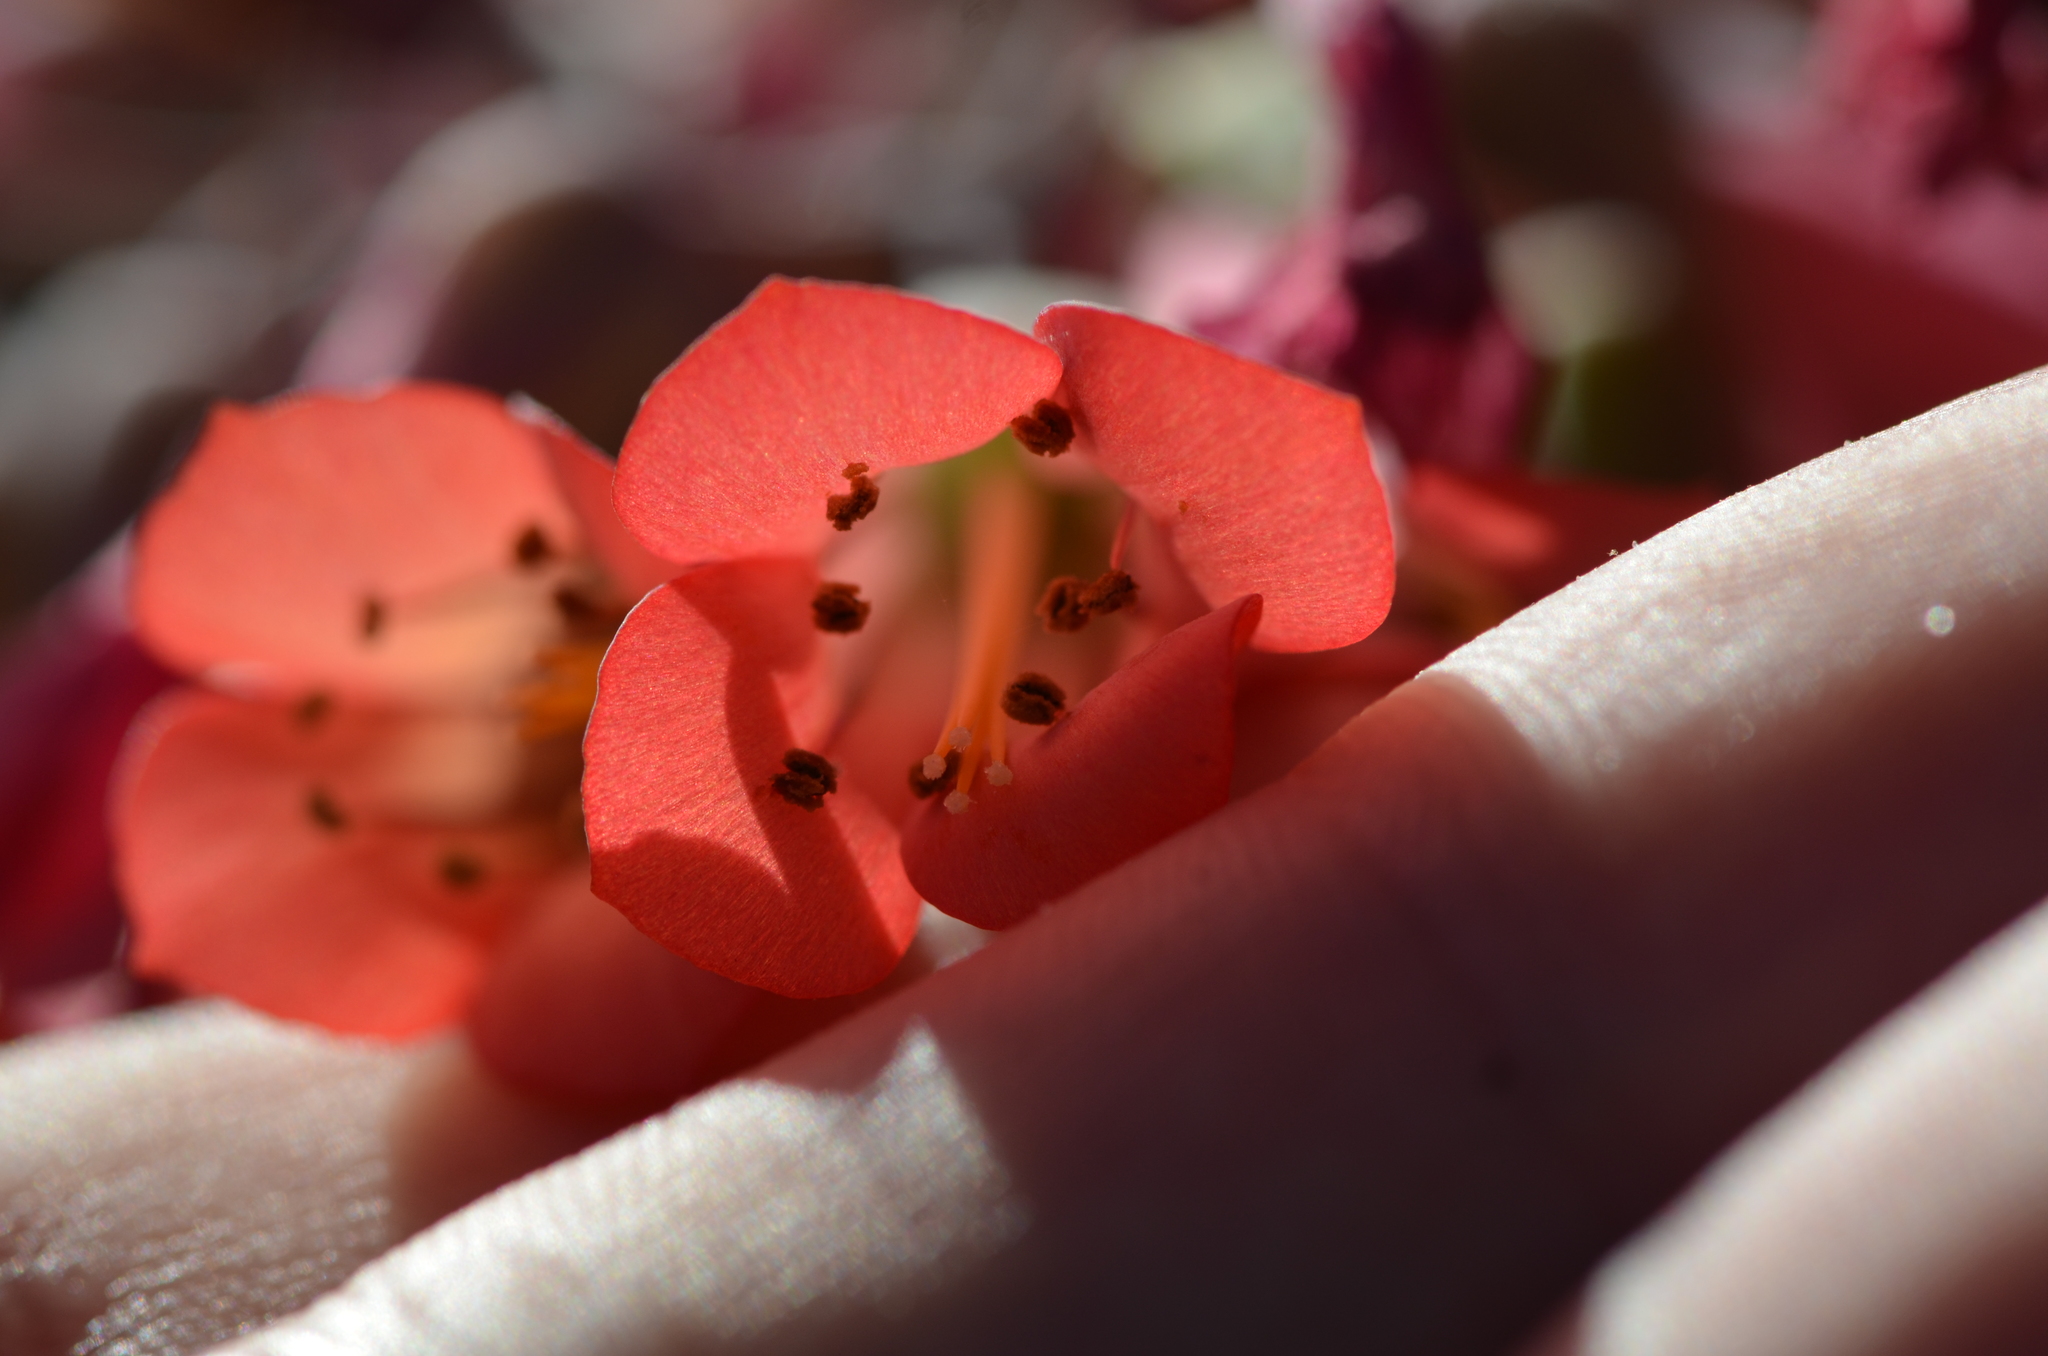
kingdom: Plantae
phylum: Tracheophyta
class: Magnoliopsida
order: Saxifragales
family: Crassulaceae
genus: Kalanchoe
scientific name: Kalanchoe houghtonii
